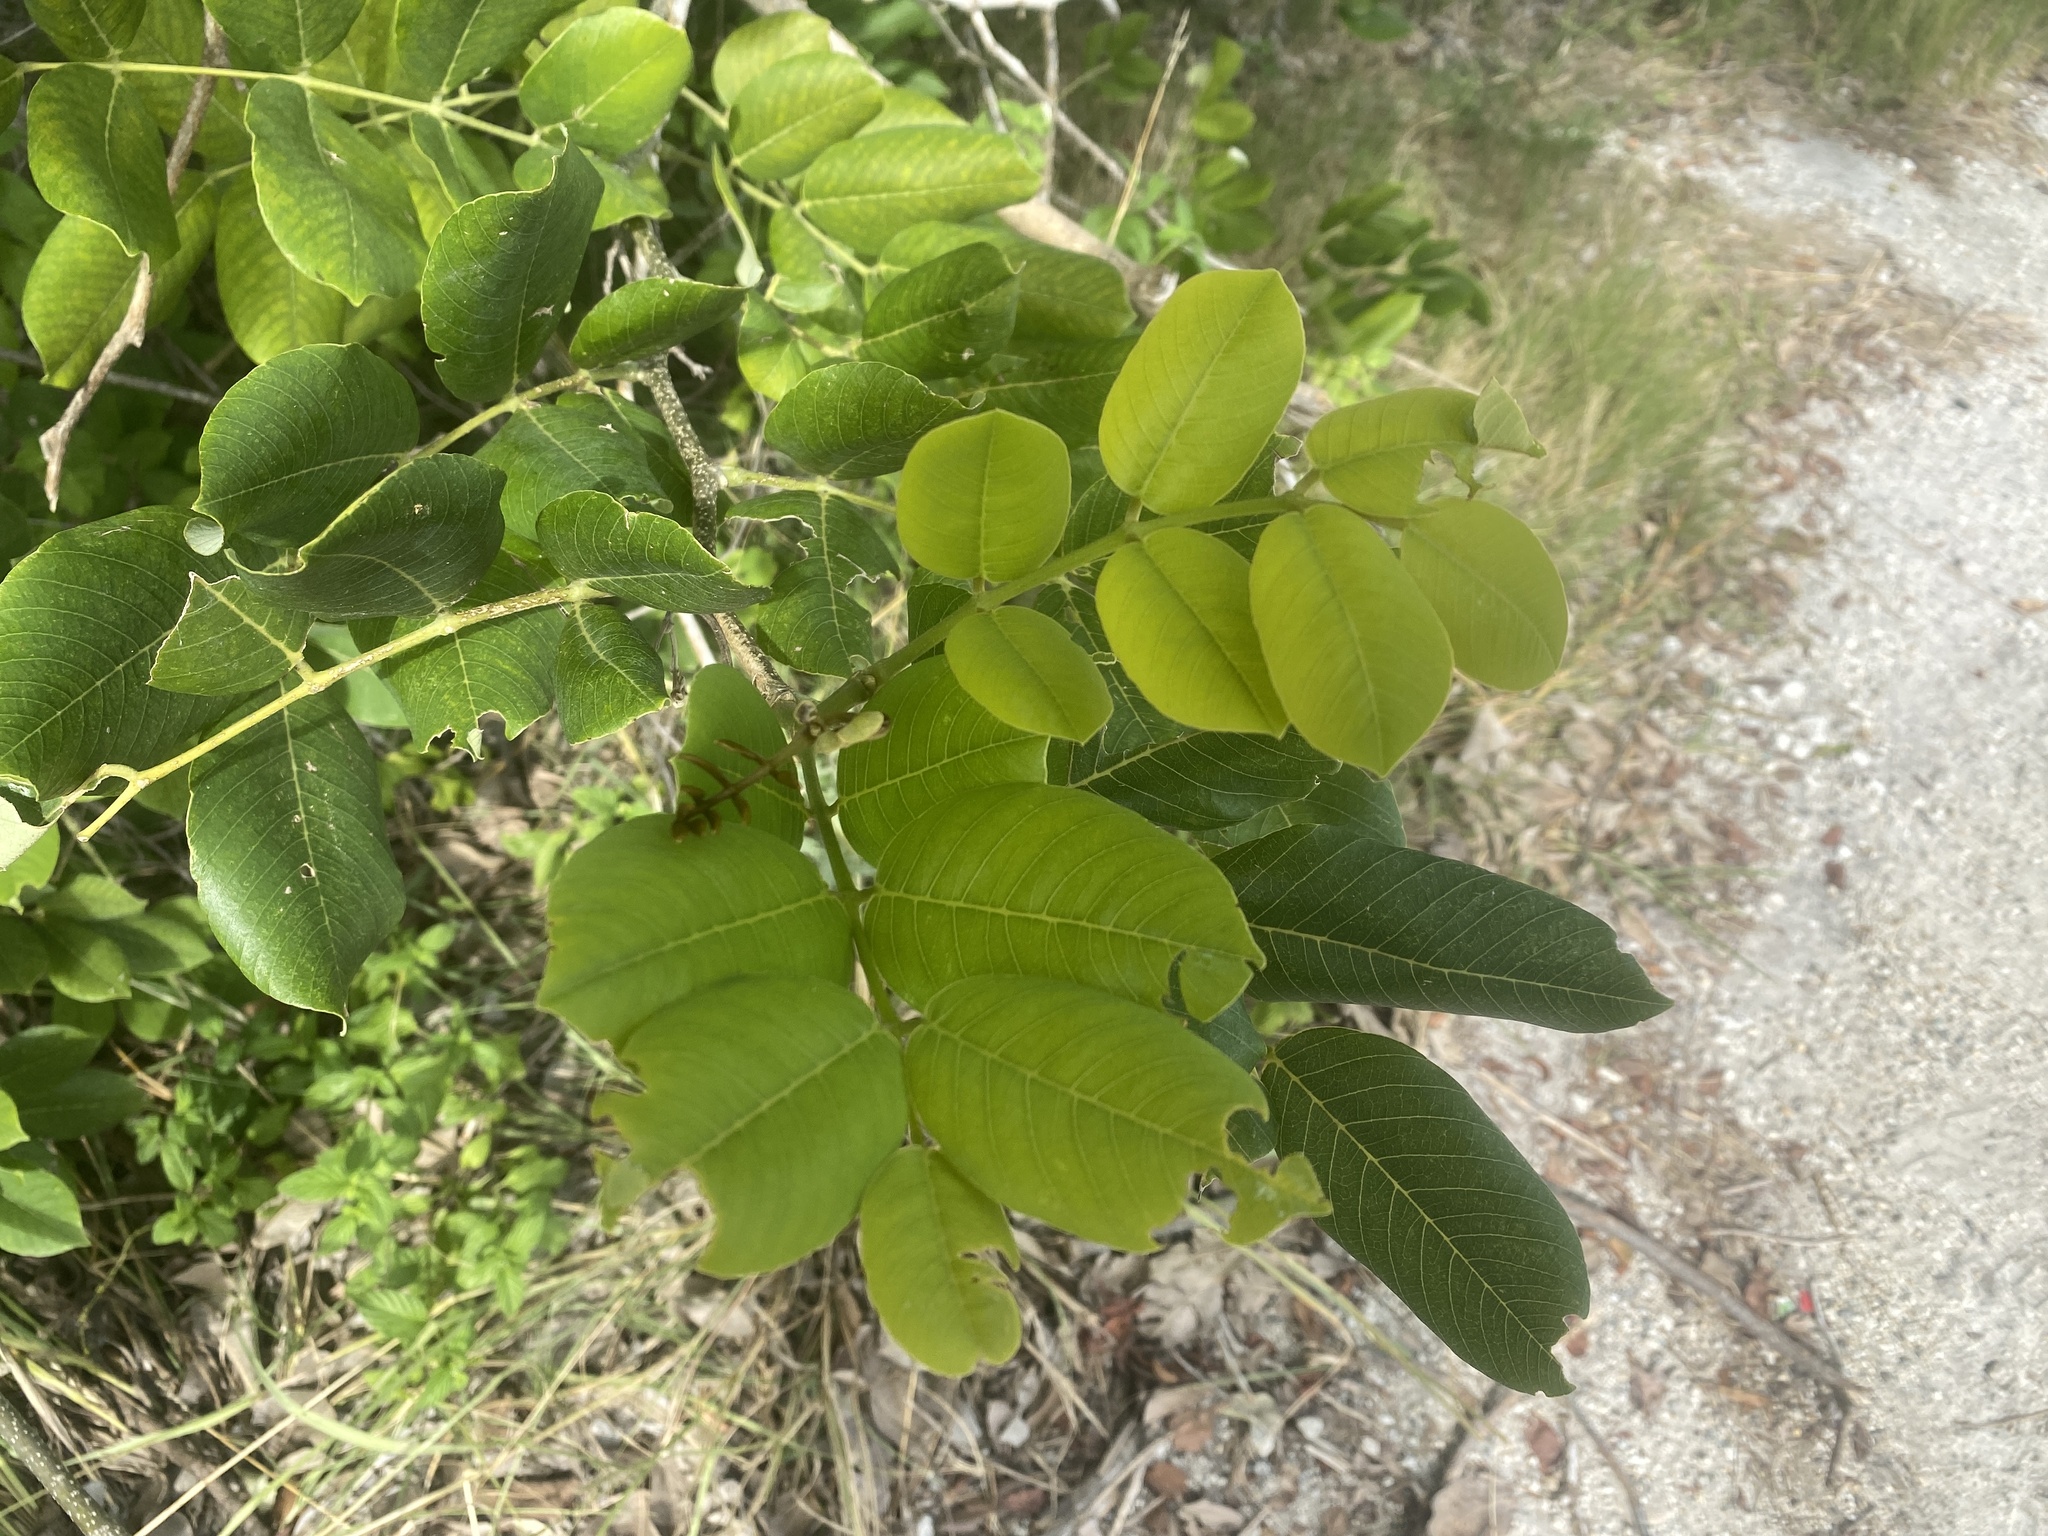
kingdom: Plantae
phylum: Tracheophyta
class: Magnoliopsida
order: Fabales
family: Fabaceae
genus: Piscidia
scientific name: Piscidia piscipula
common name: Florida fishpoison tree
